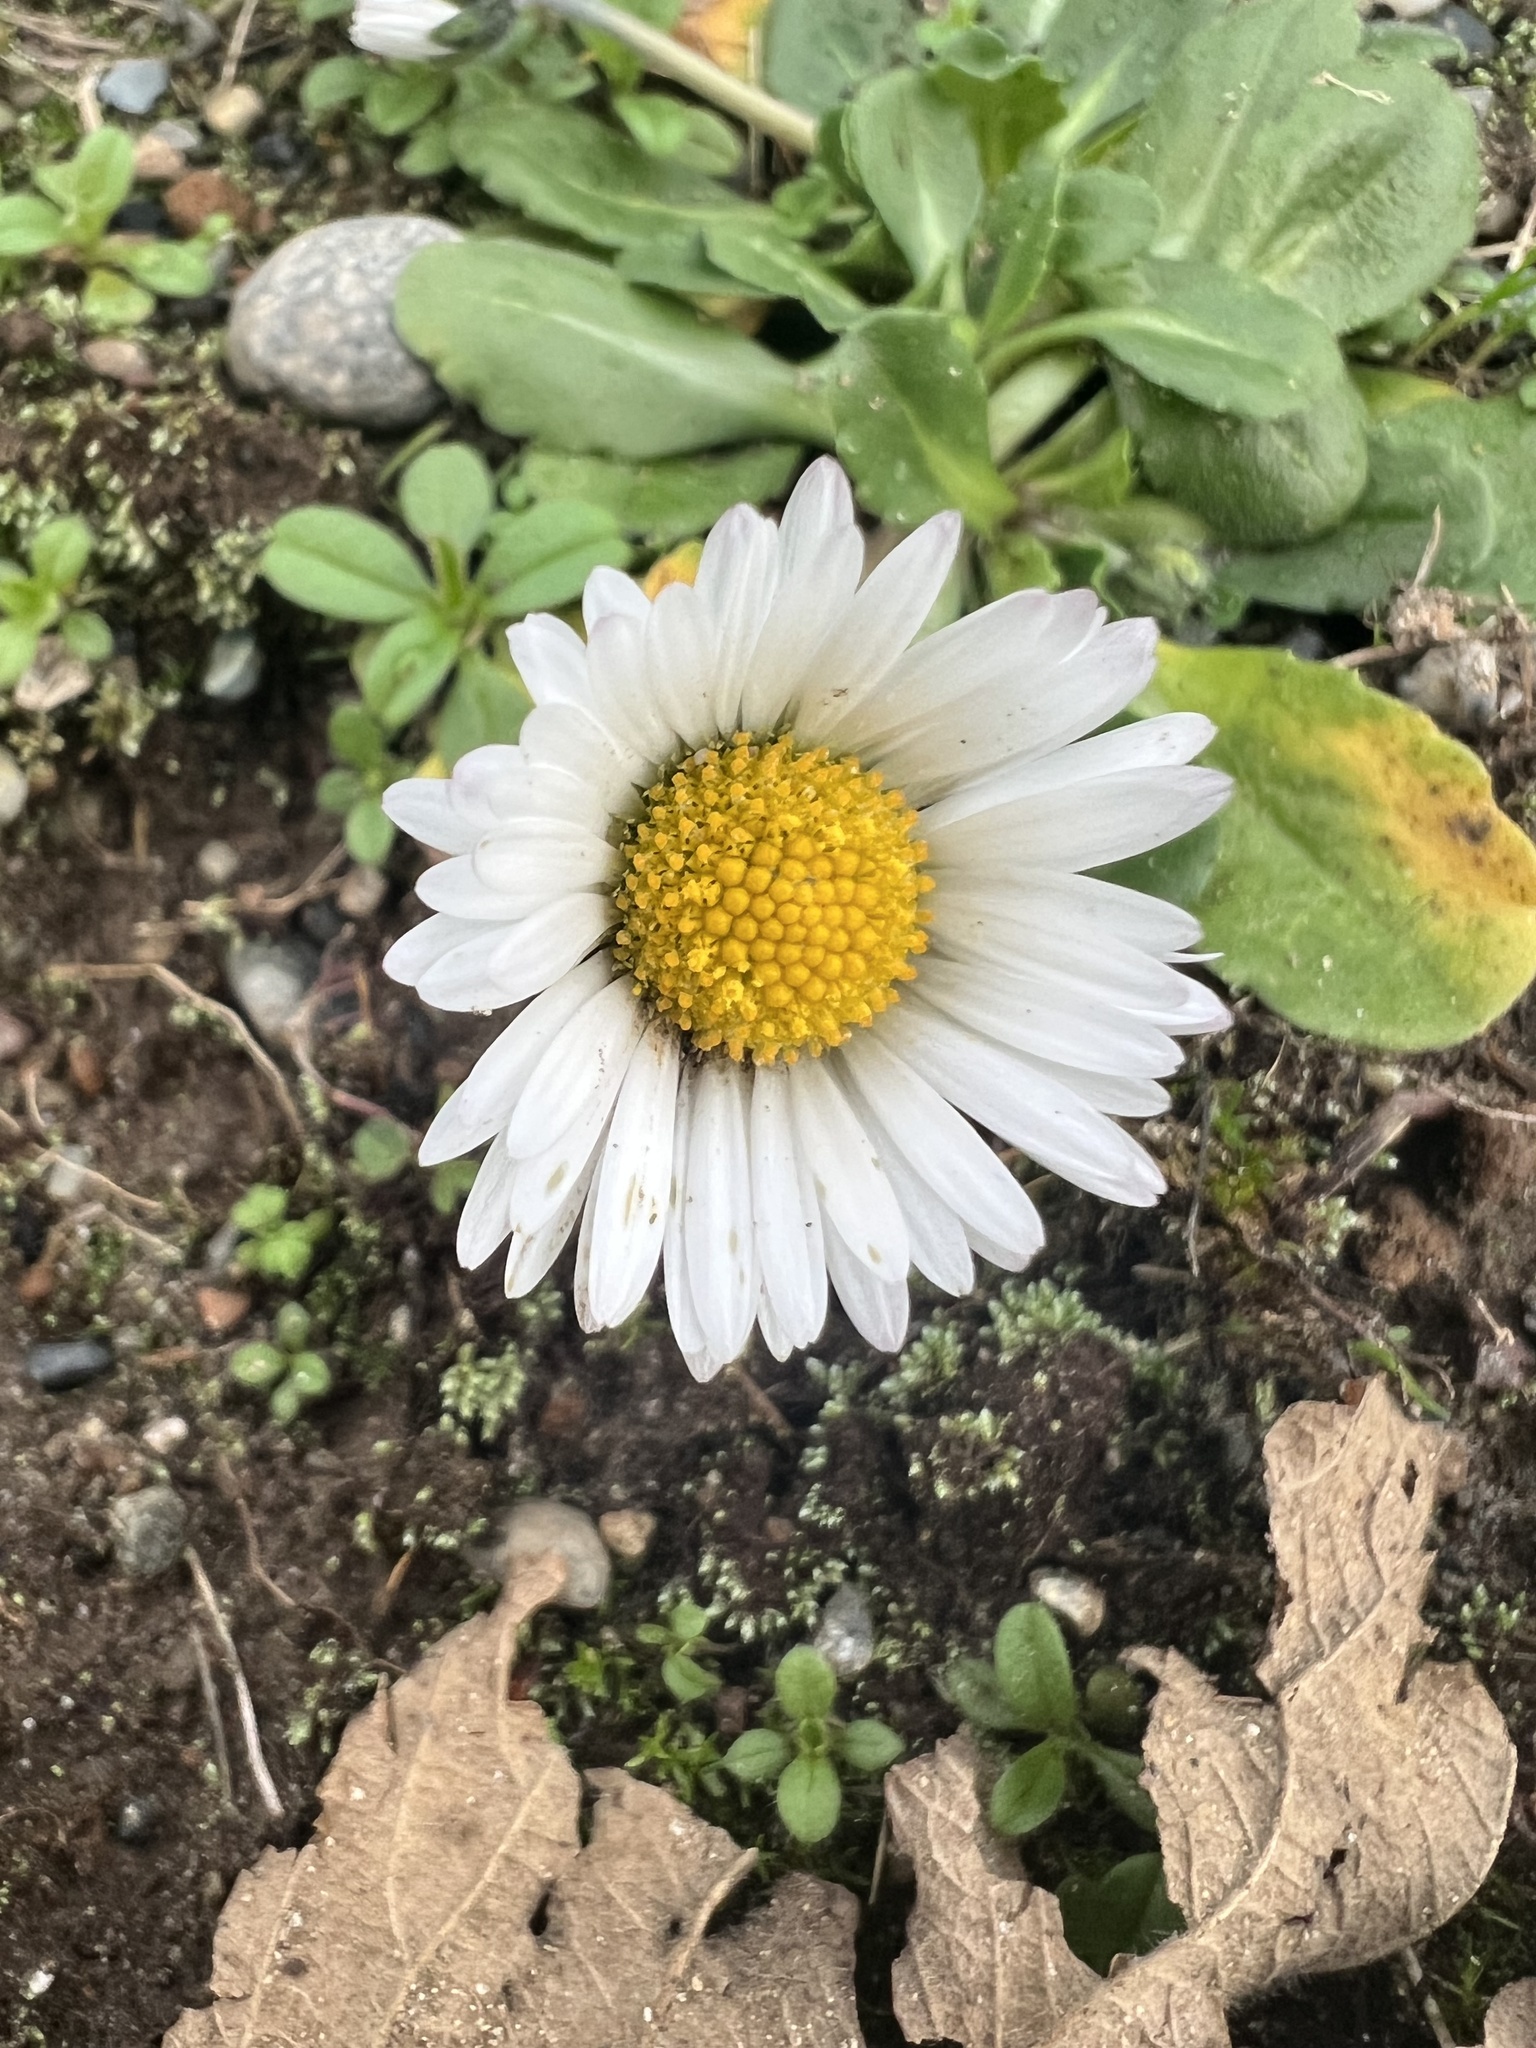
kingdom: Plantae
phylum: Tracheophyta
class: Magnoliopsida
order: Asterales
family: Asteraceae
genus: Bellis
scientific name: Bellis perennis
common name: Lawndaisy
